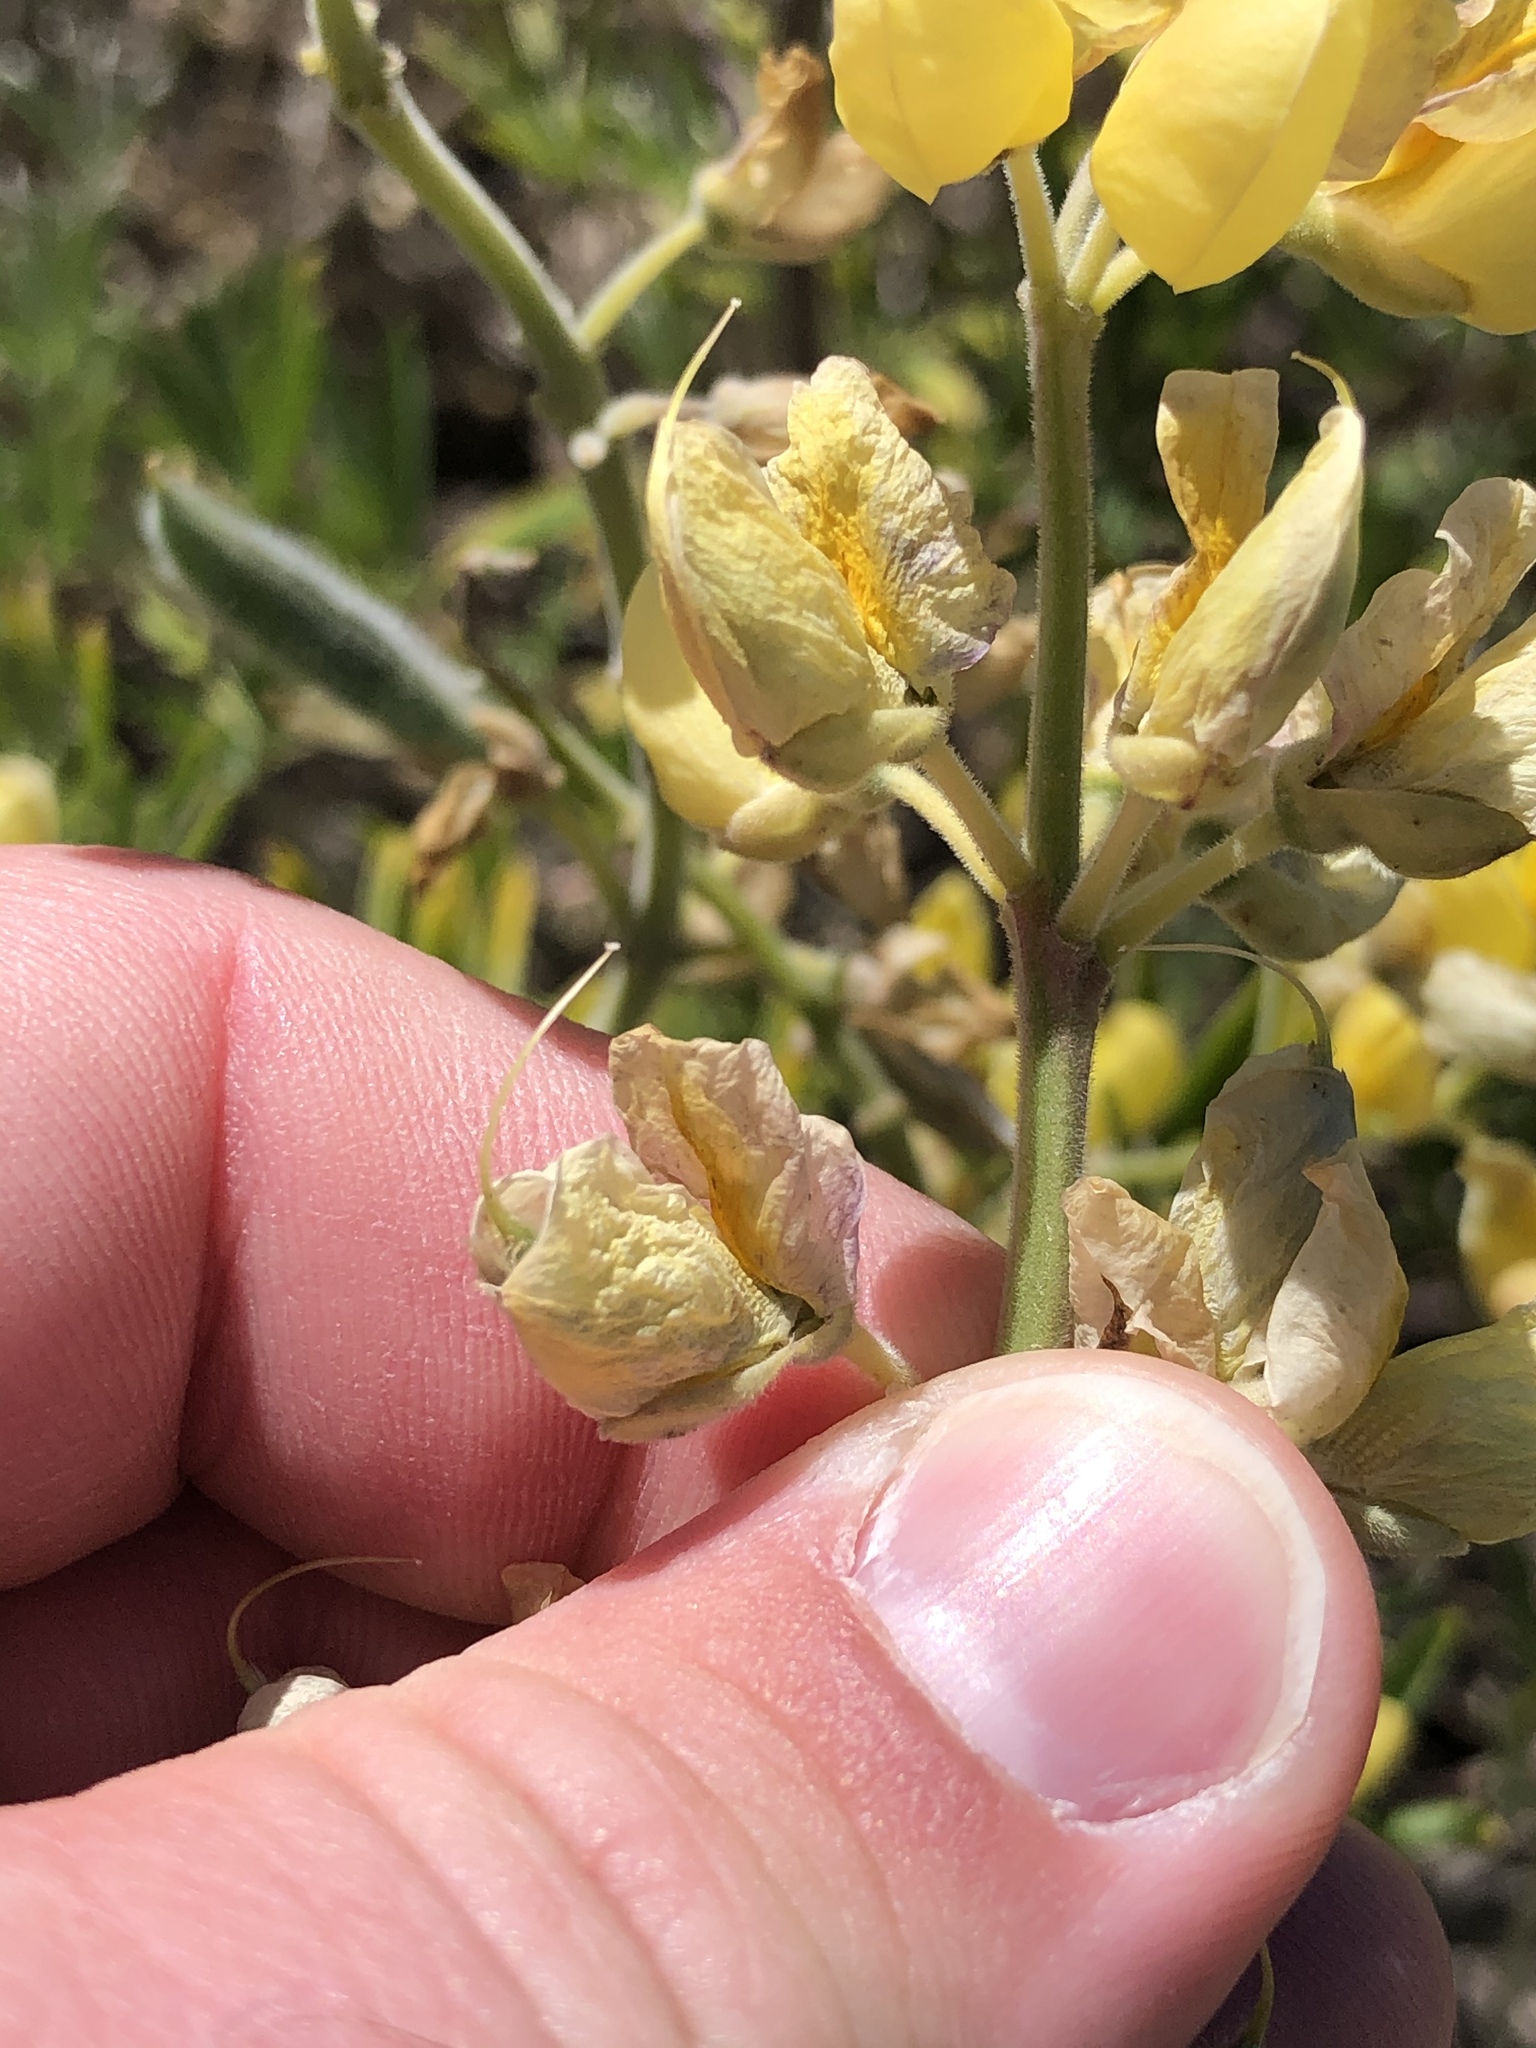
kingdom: Plantae
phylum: Tracheophyta
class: Magnoliopsida
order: Fabales
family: Fabaceae
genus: Lupinus
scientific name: Lupinus arboreus
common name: Yellow bush lupine
